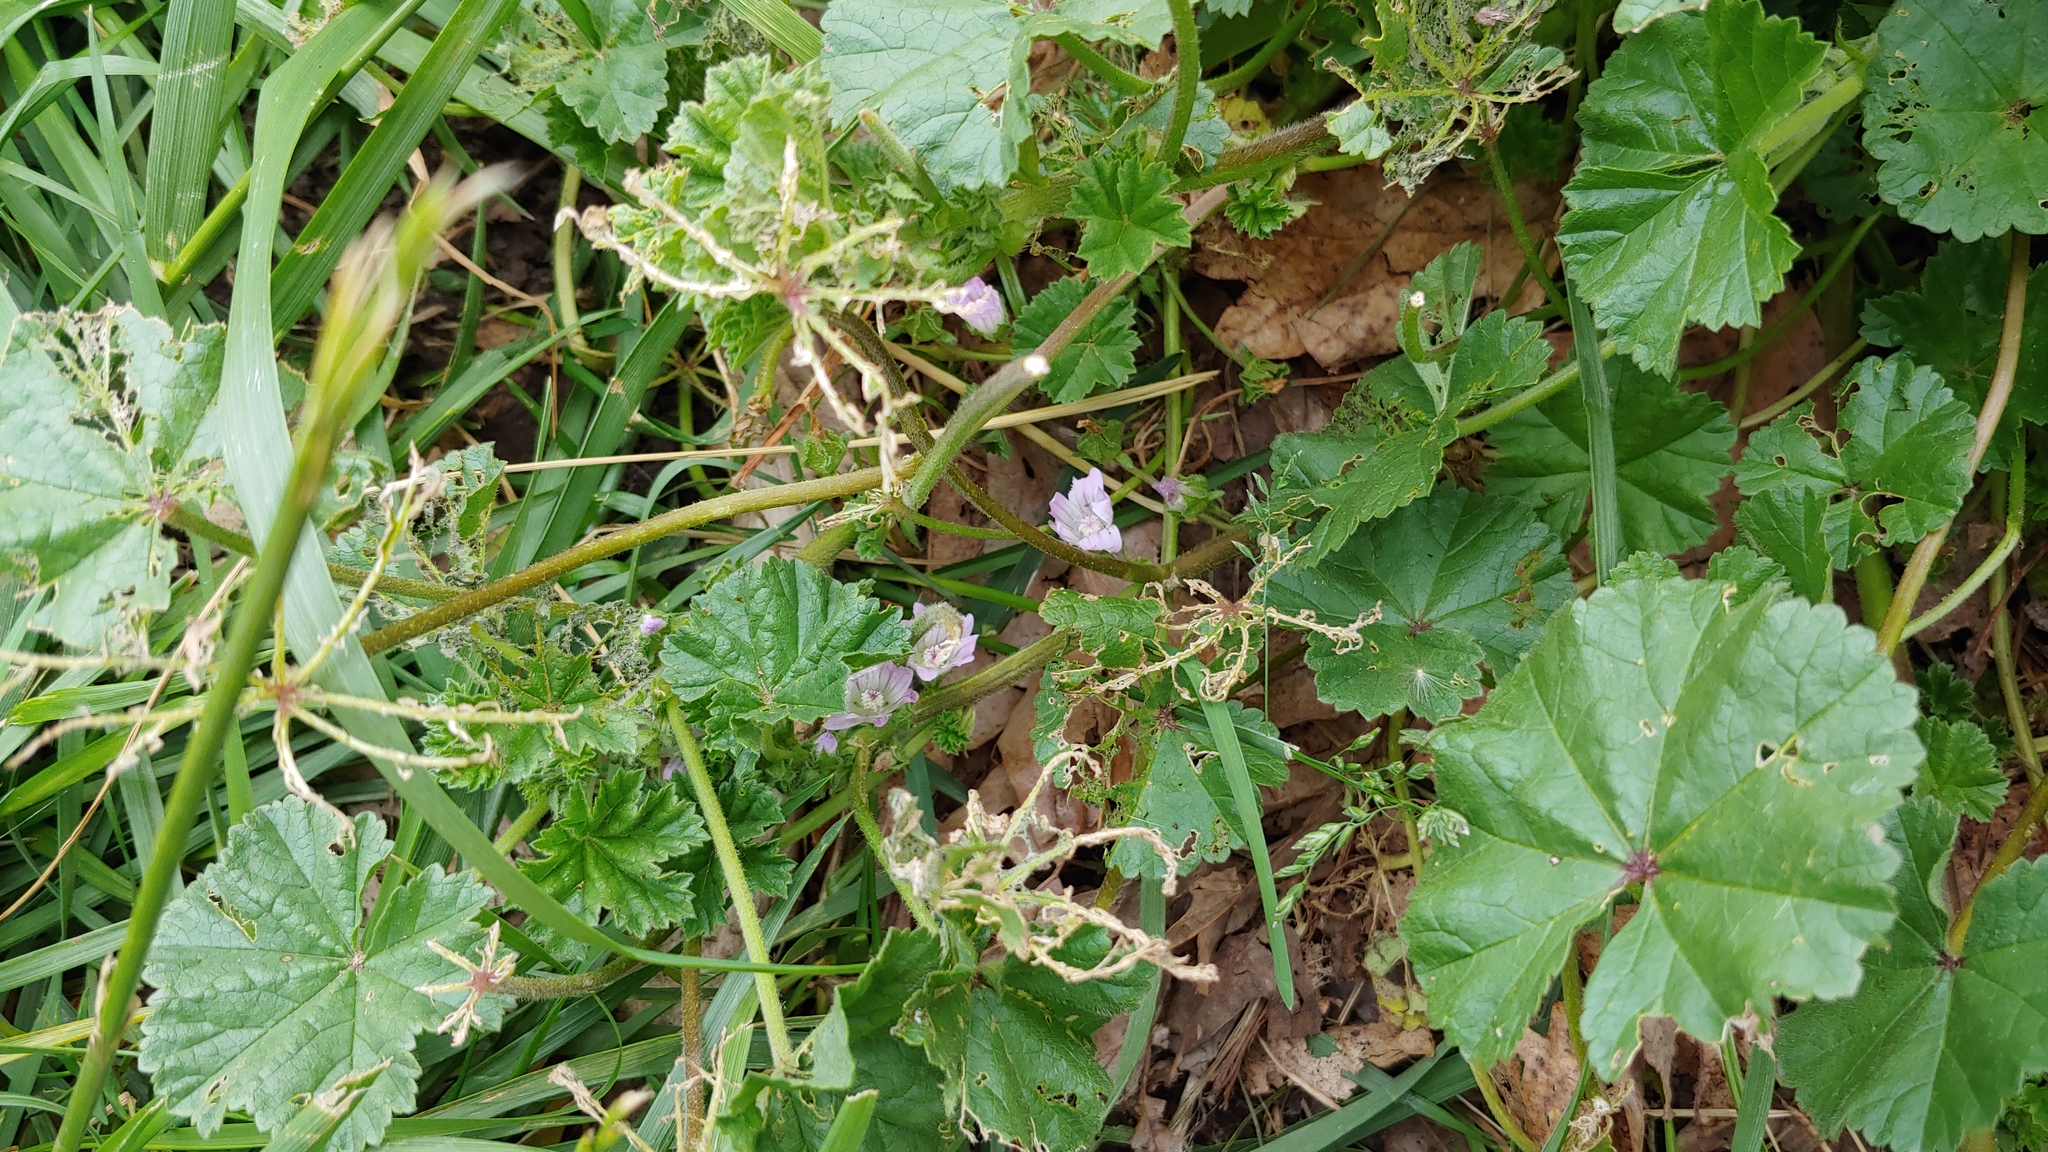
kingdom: Plantae
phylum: Tracheophyta
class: Magnoliopsida
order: Malvales
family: Malvaceae
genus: Malva
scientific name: Malva neglecta
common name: Common mallow
